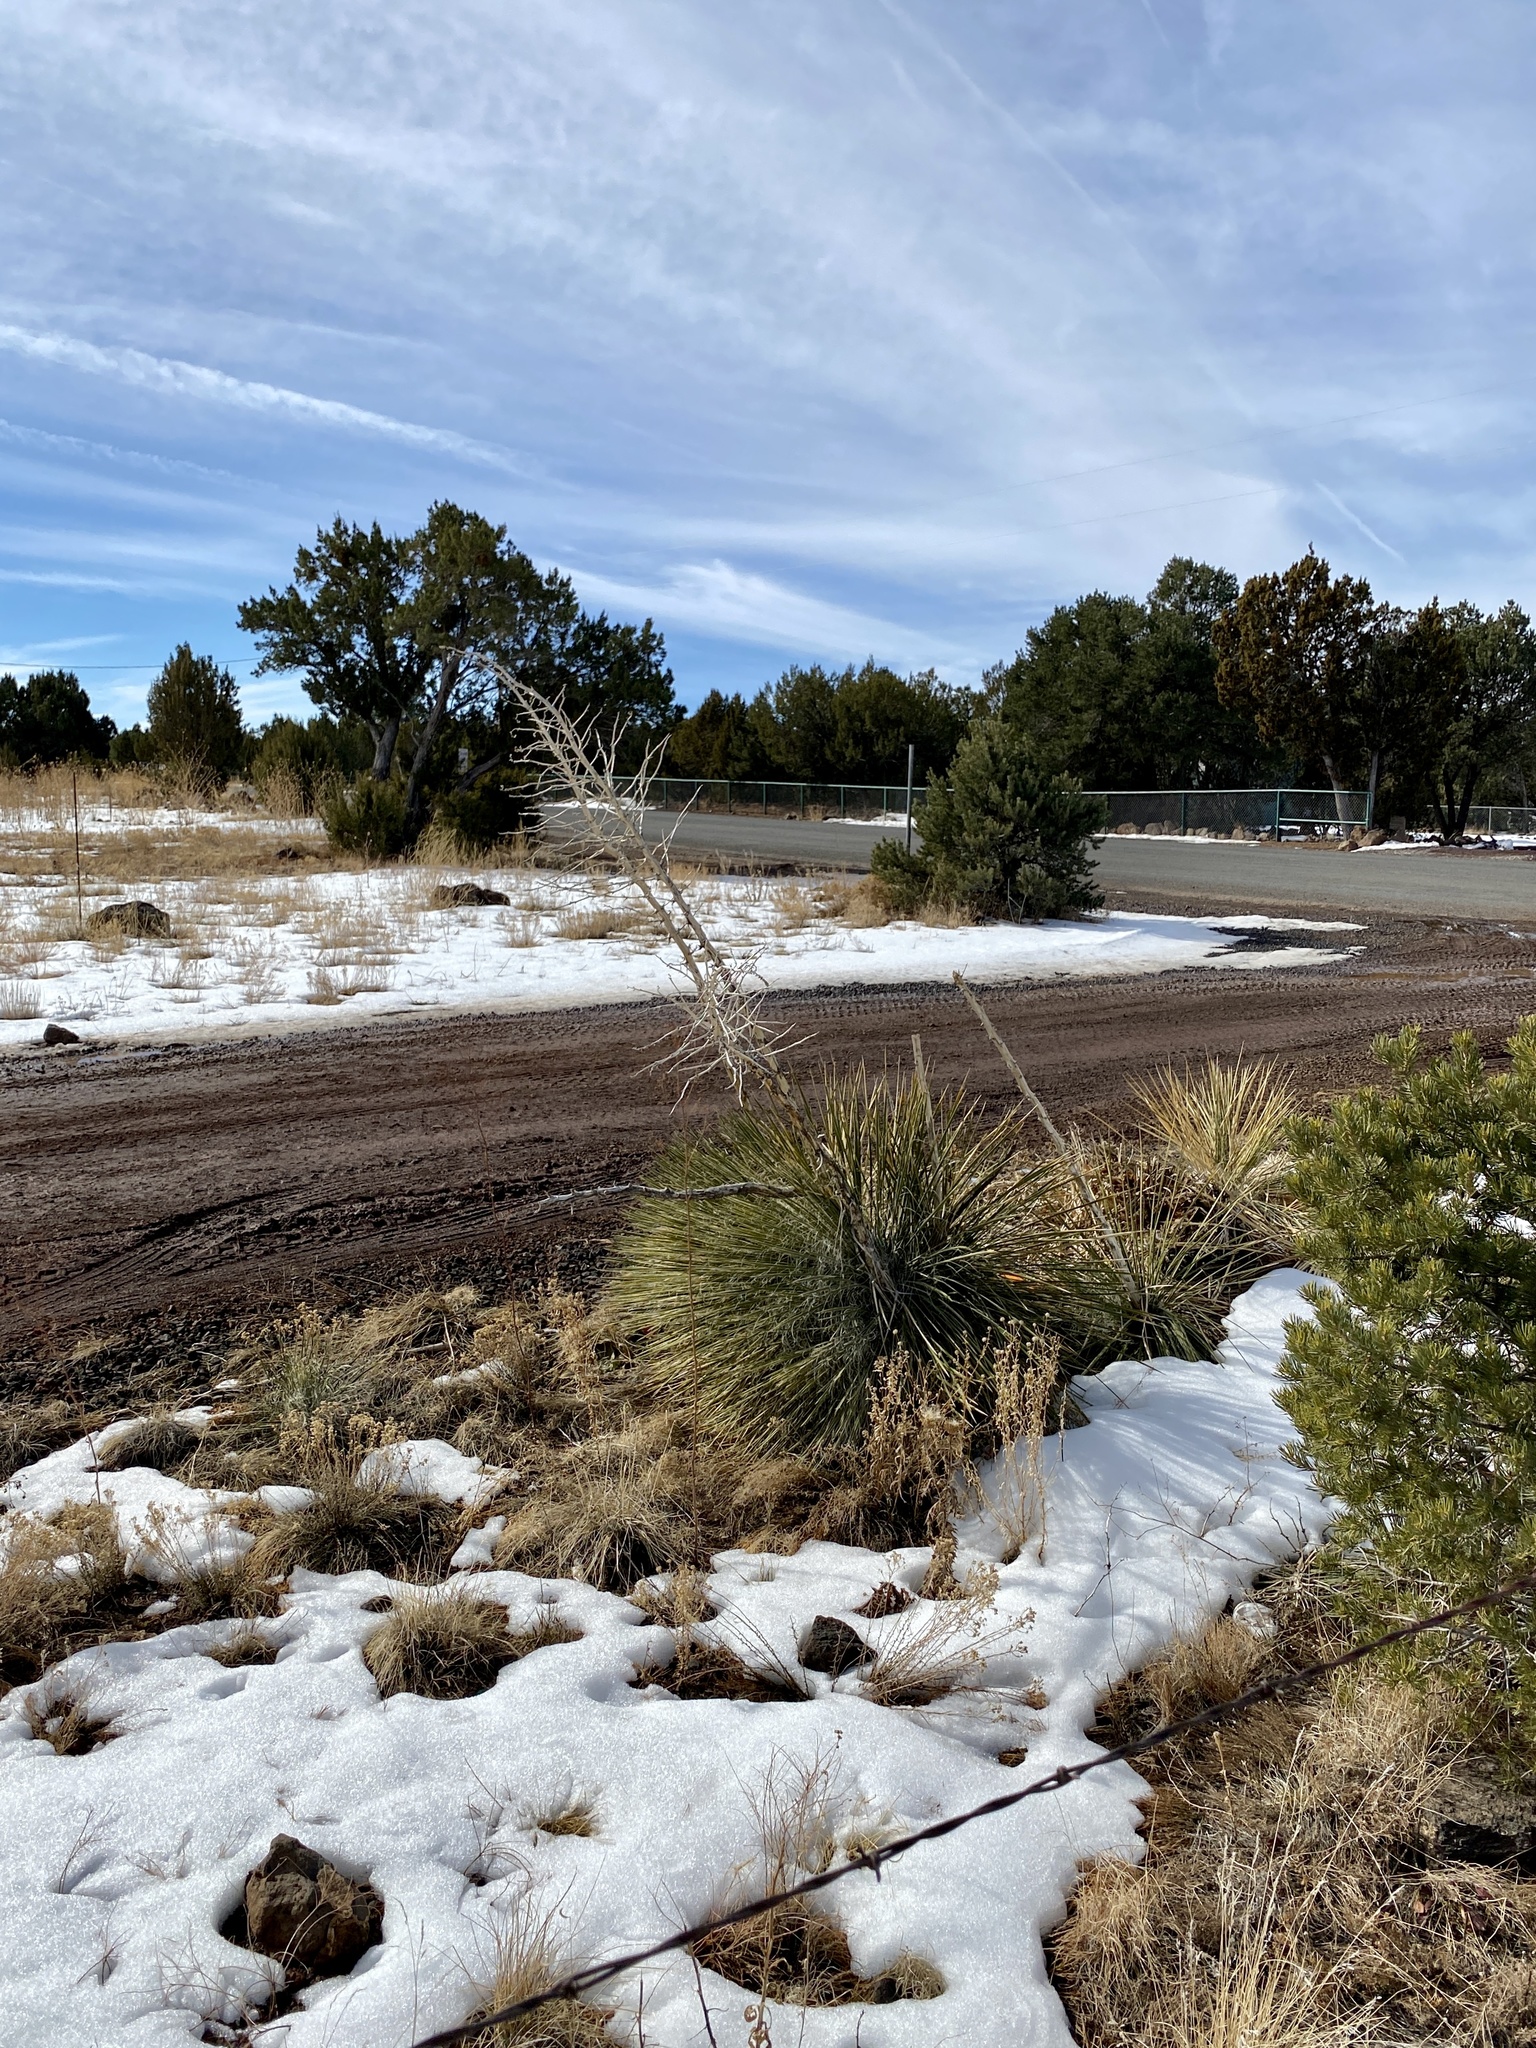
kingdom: Plantae
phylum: Tracheophyta
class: Liliopsida
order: Asparagales
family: Asparagaceae
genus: Yucca
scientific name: Yucca elata
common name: Palmella
